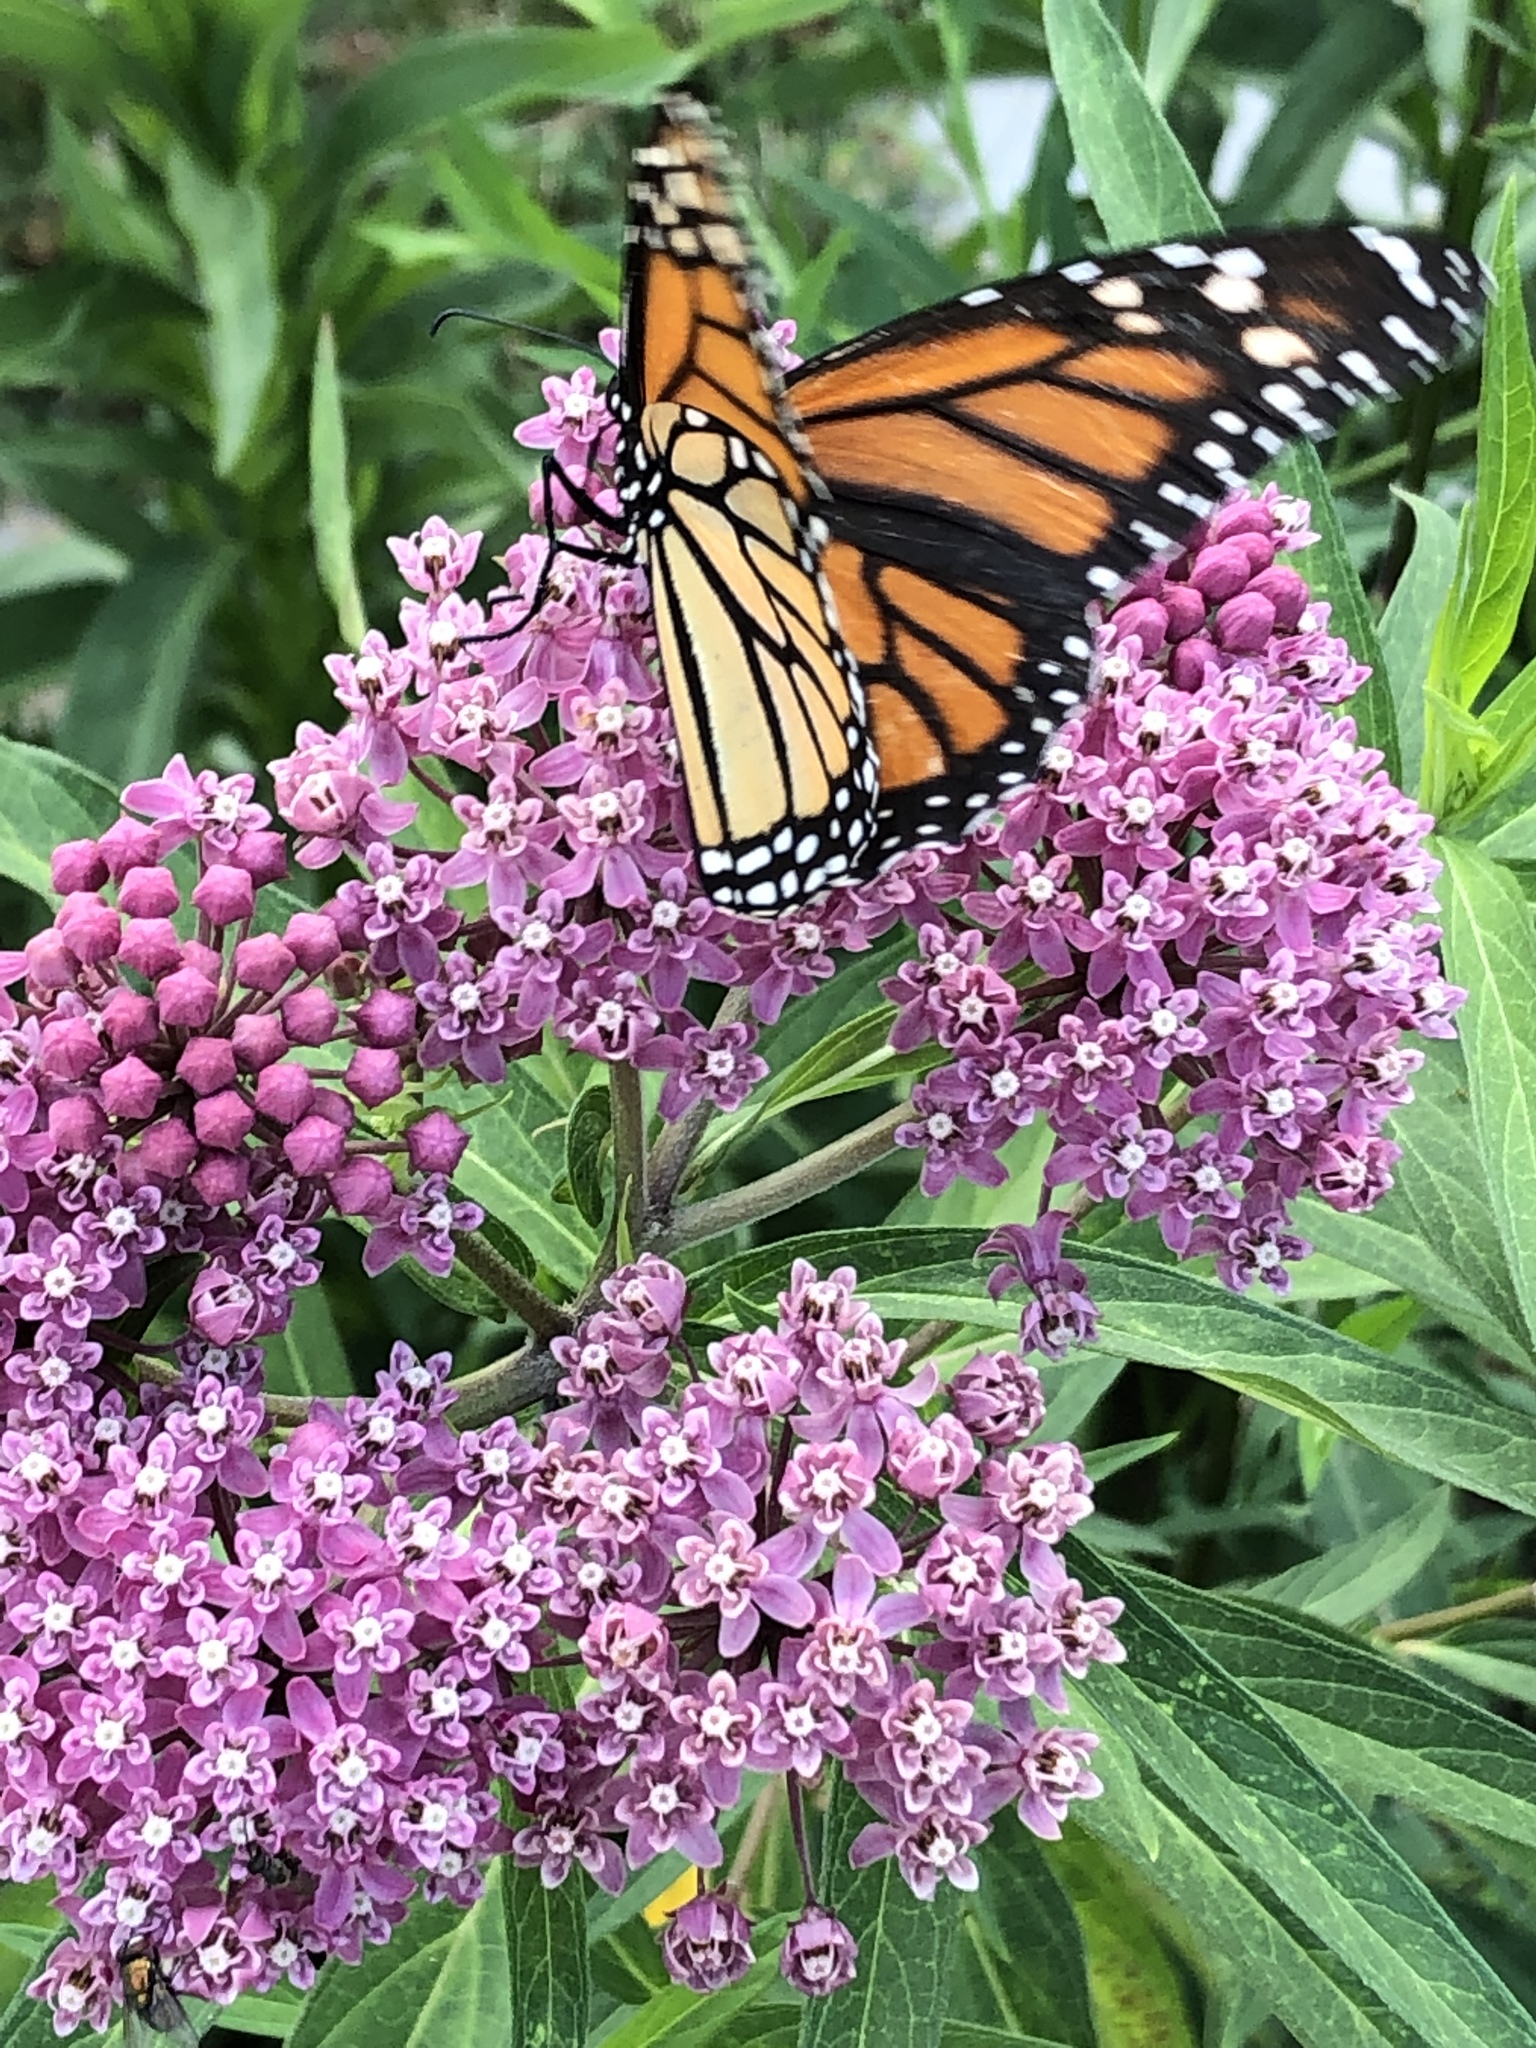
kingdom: Animalia
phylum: Arthropoda
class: Insecta
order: Lepidoptera
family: Nymphalidae
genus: Danaus
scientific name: Danaus plexippus
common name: Monarch
